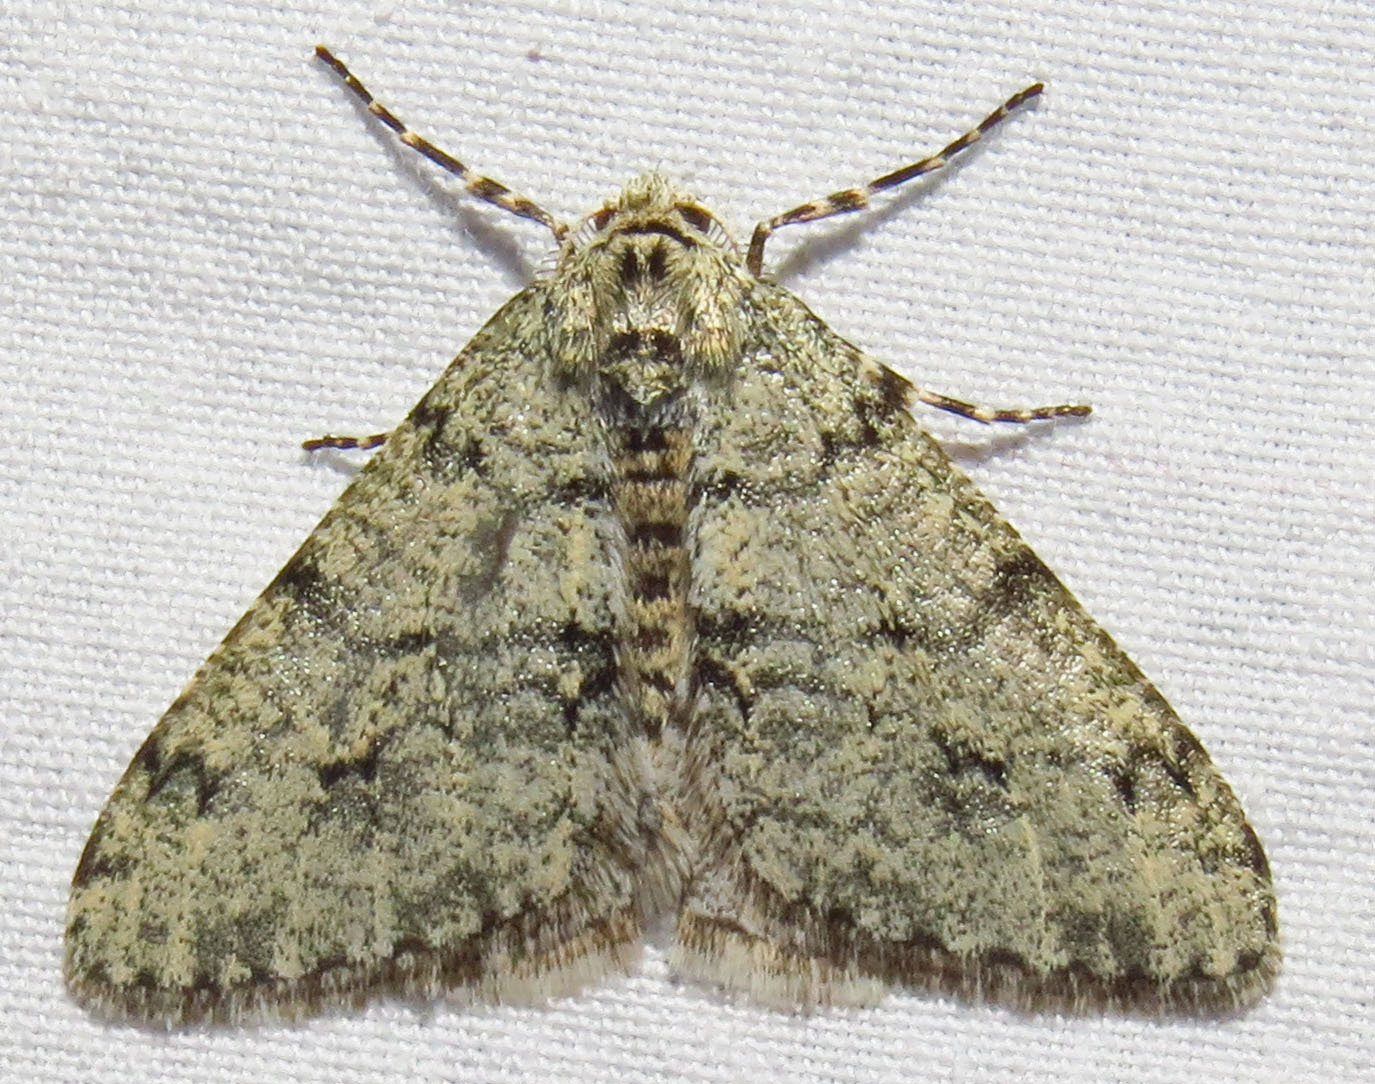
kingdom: Animalia
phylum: Arthropoda
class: Insecta
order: Lepidoptera
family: Geometridae
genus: Phigalia
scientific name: Phigalia strigataria
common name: Small phigalia
